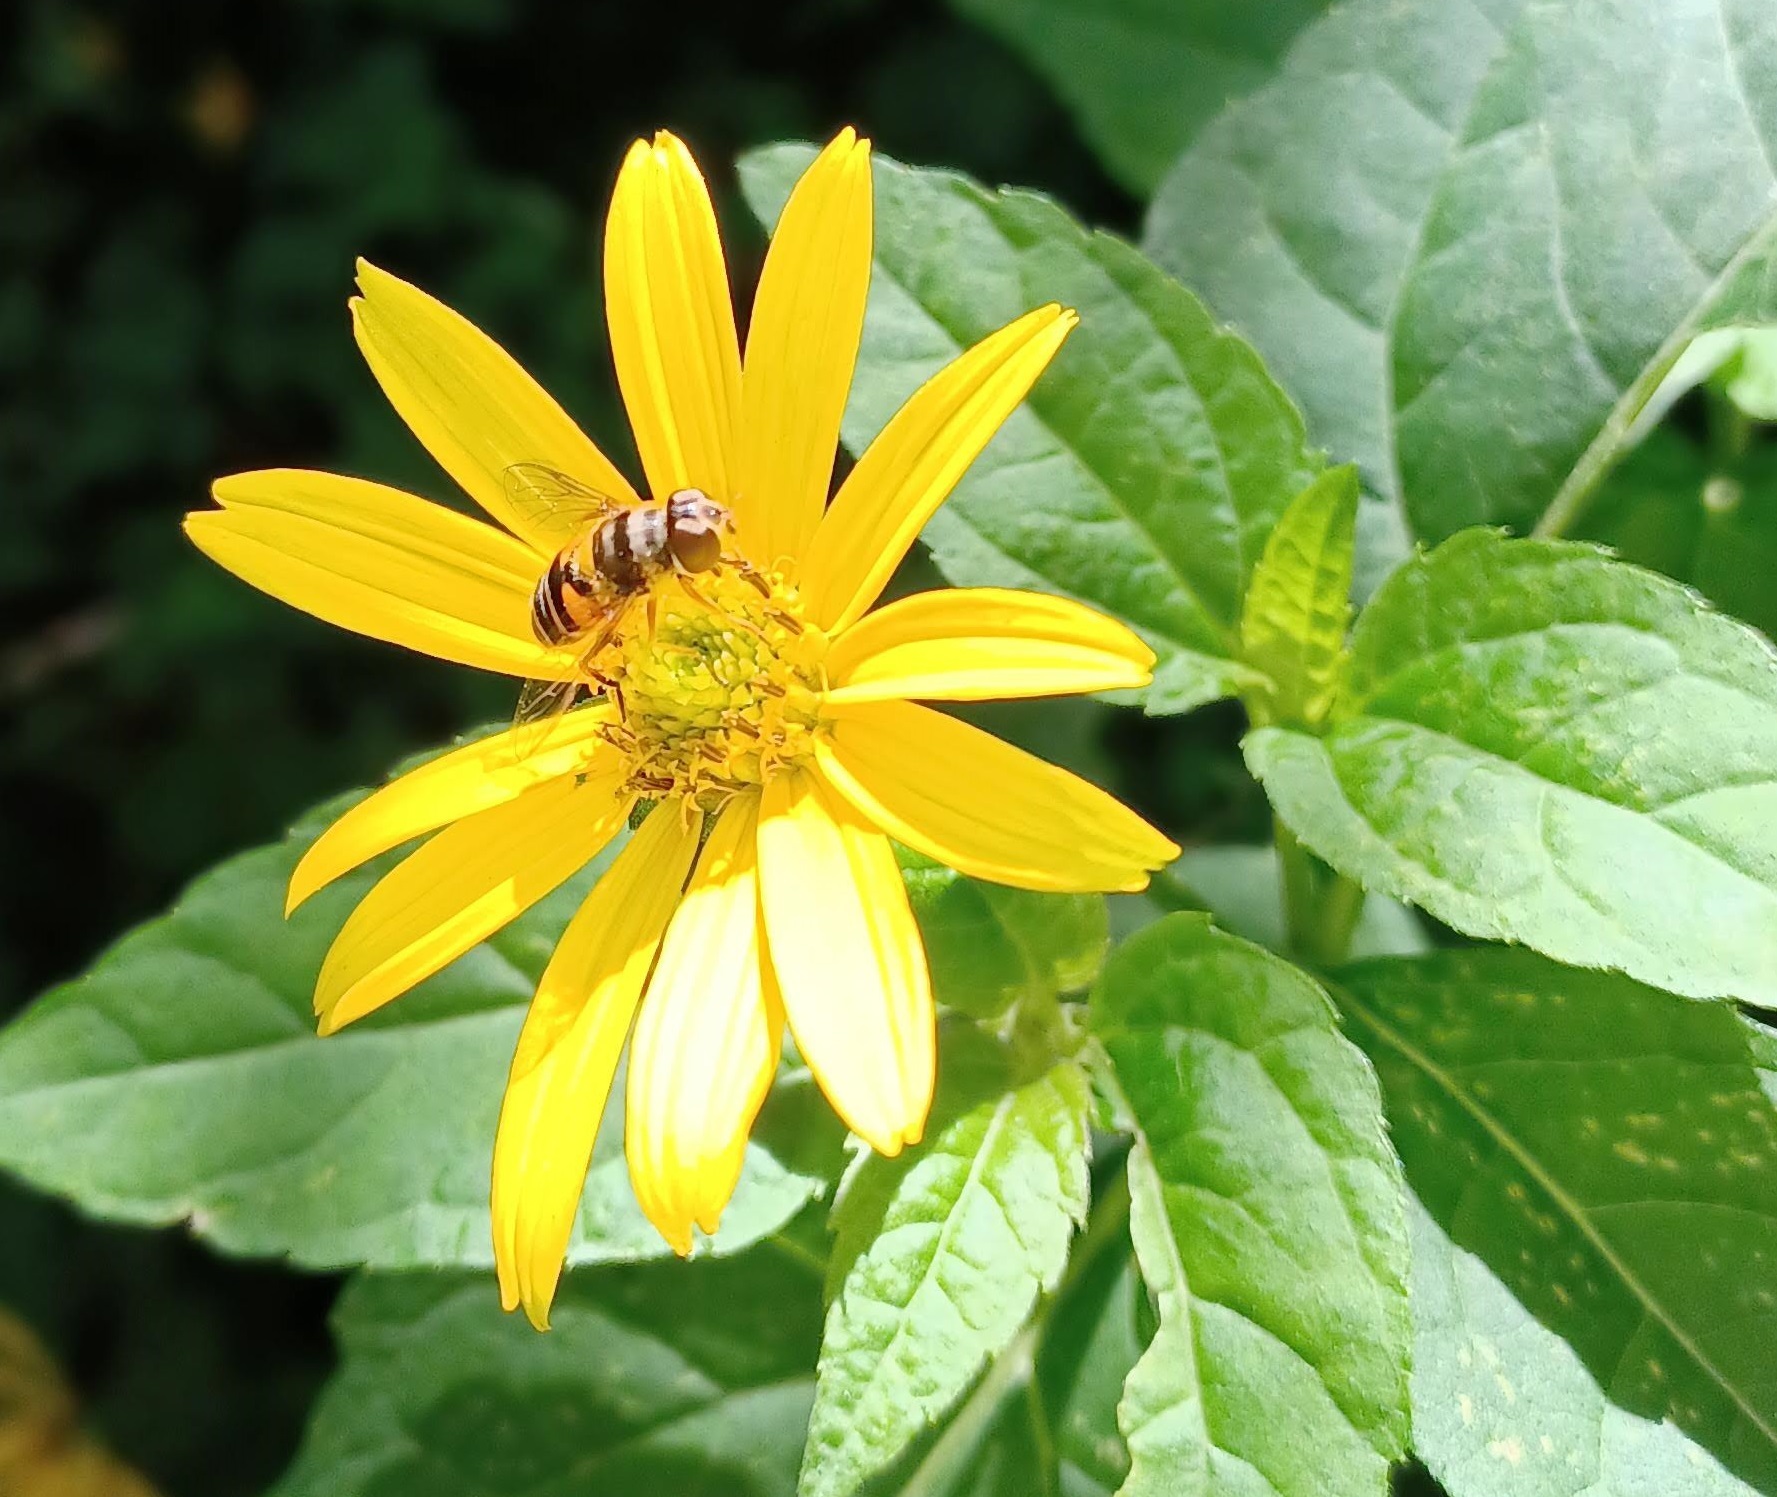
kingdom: Animalia
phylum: Arthropoda
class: Insecta
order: Diptera
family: Syrphidae
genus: Eristalis
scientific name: Eristalis transversa
